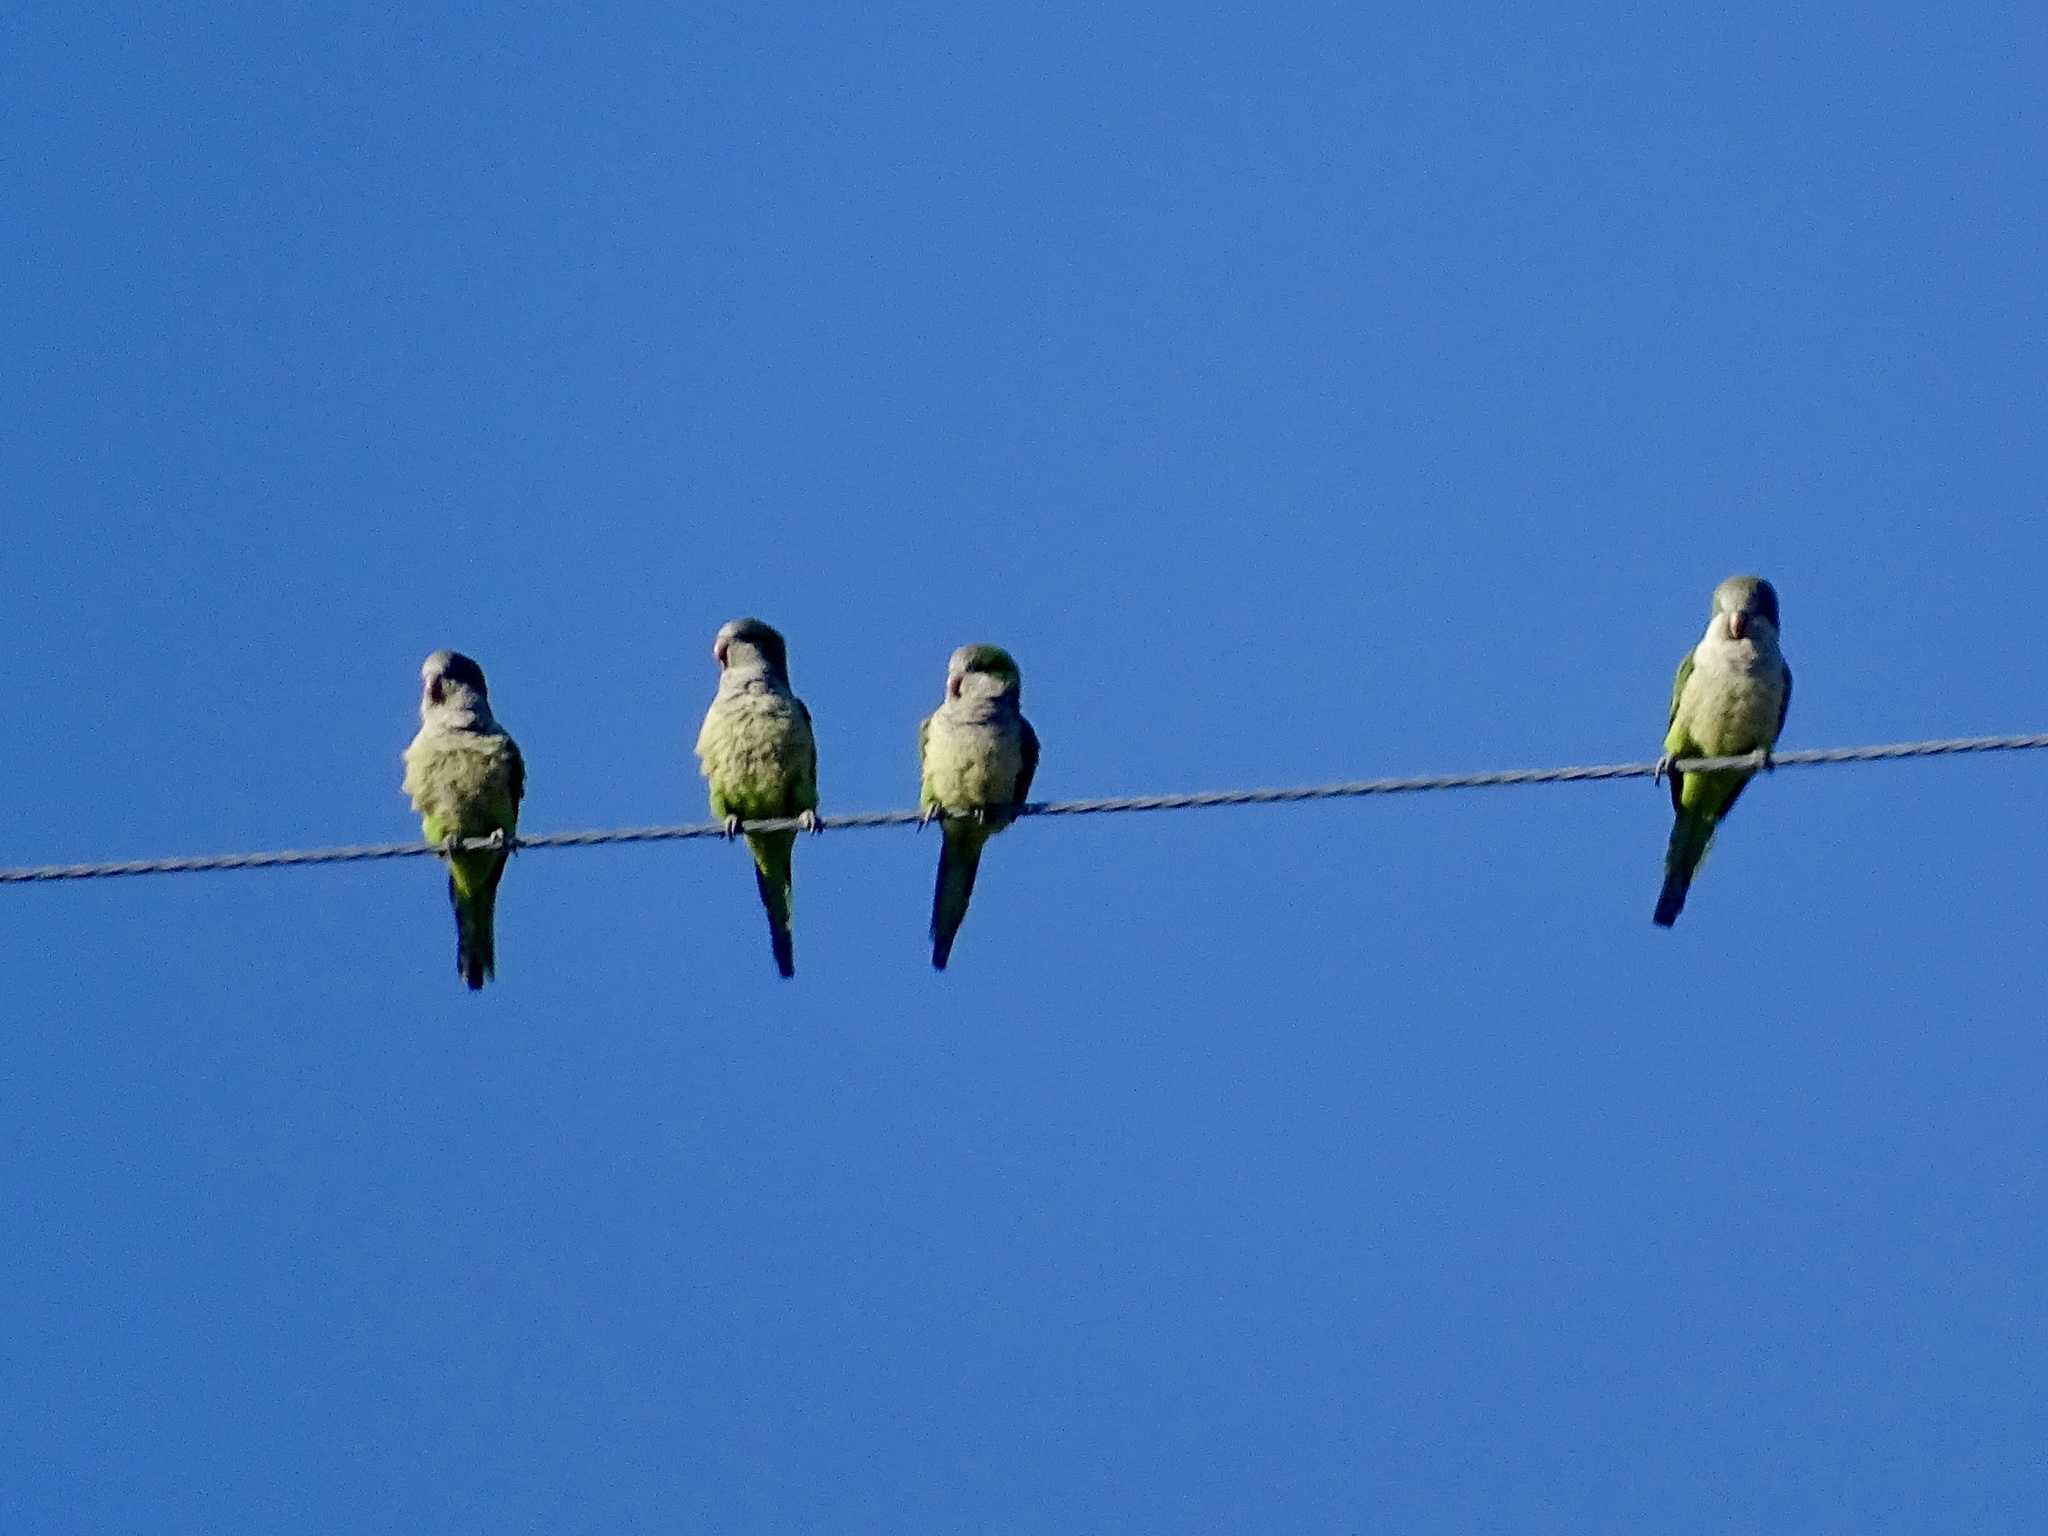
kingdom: Animalia
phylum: Chordata
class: Aves
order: Psittaciformes
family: Psittacidae
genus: Myiopsitta
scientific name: Myiopsitta monachus
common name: Monk parakeet
